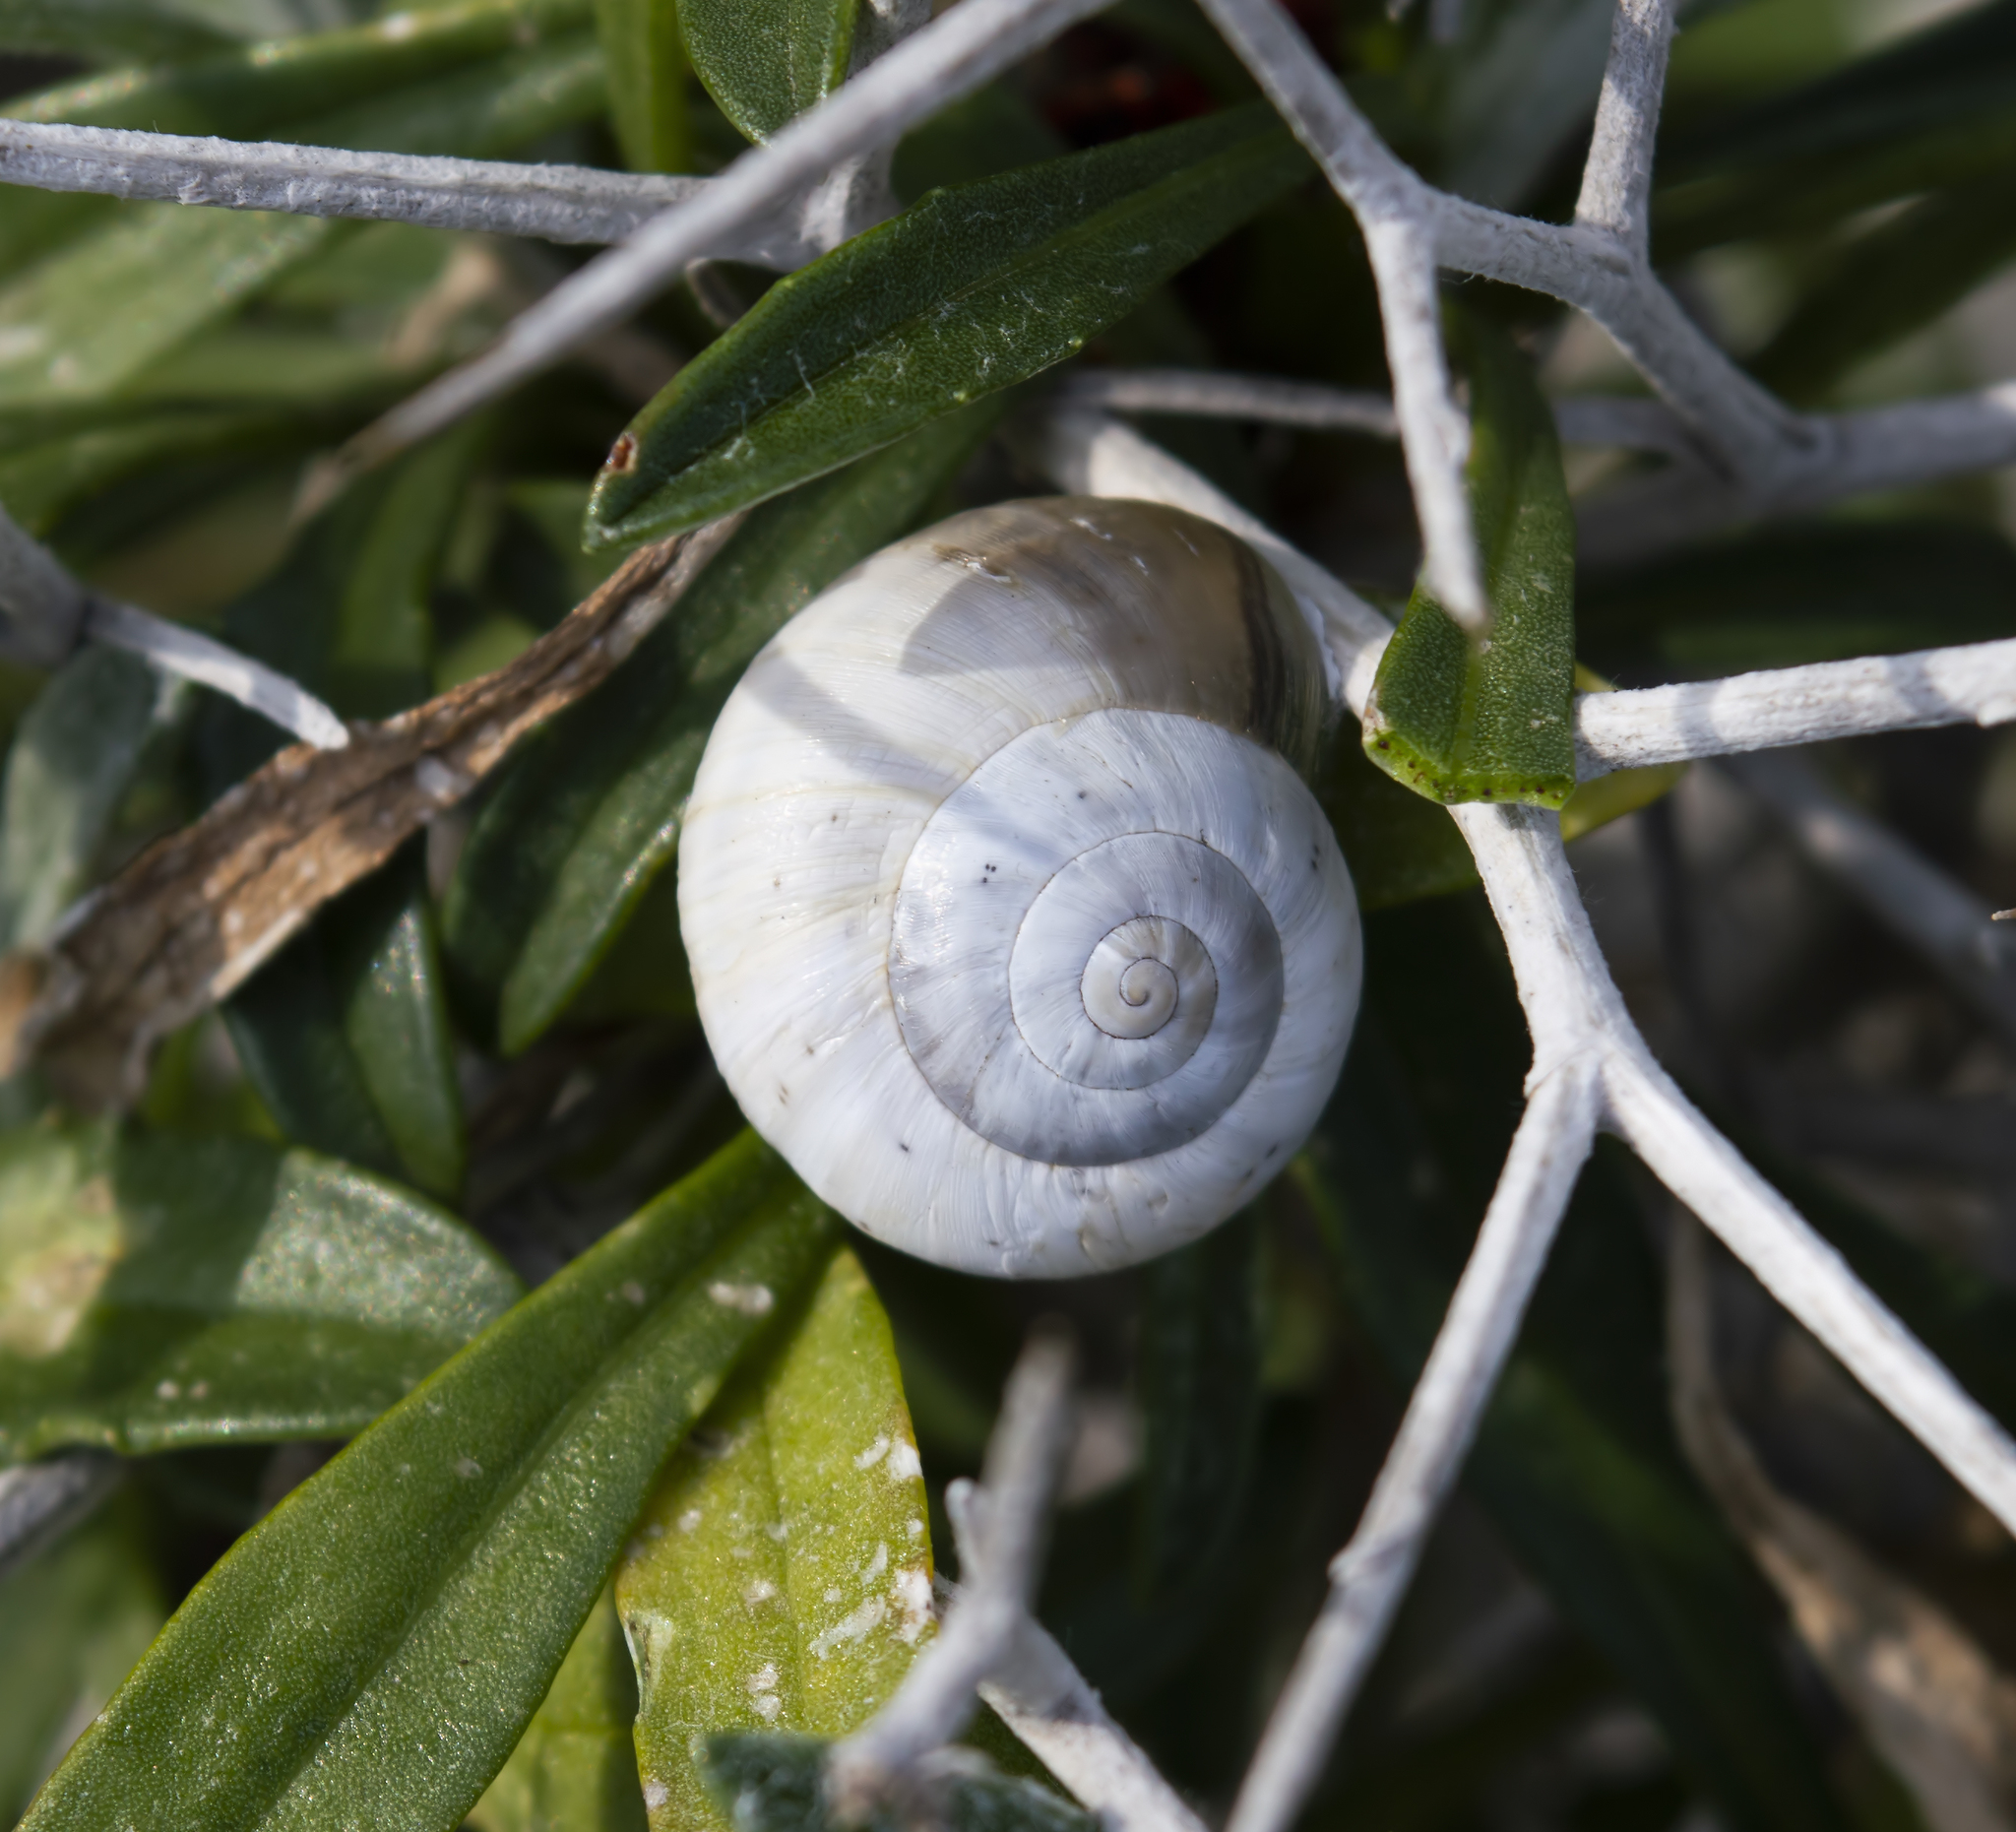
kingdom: Animalia
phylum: Mollusca
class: Gastropoda
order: Stylommatophora
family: Helicidae
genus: Theba
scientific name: Theba pisana
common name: White snail
